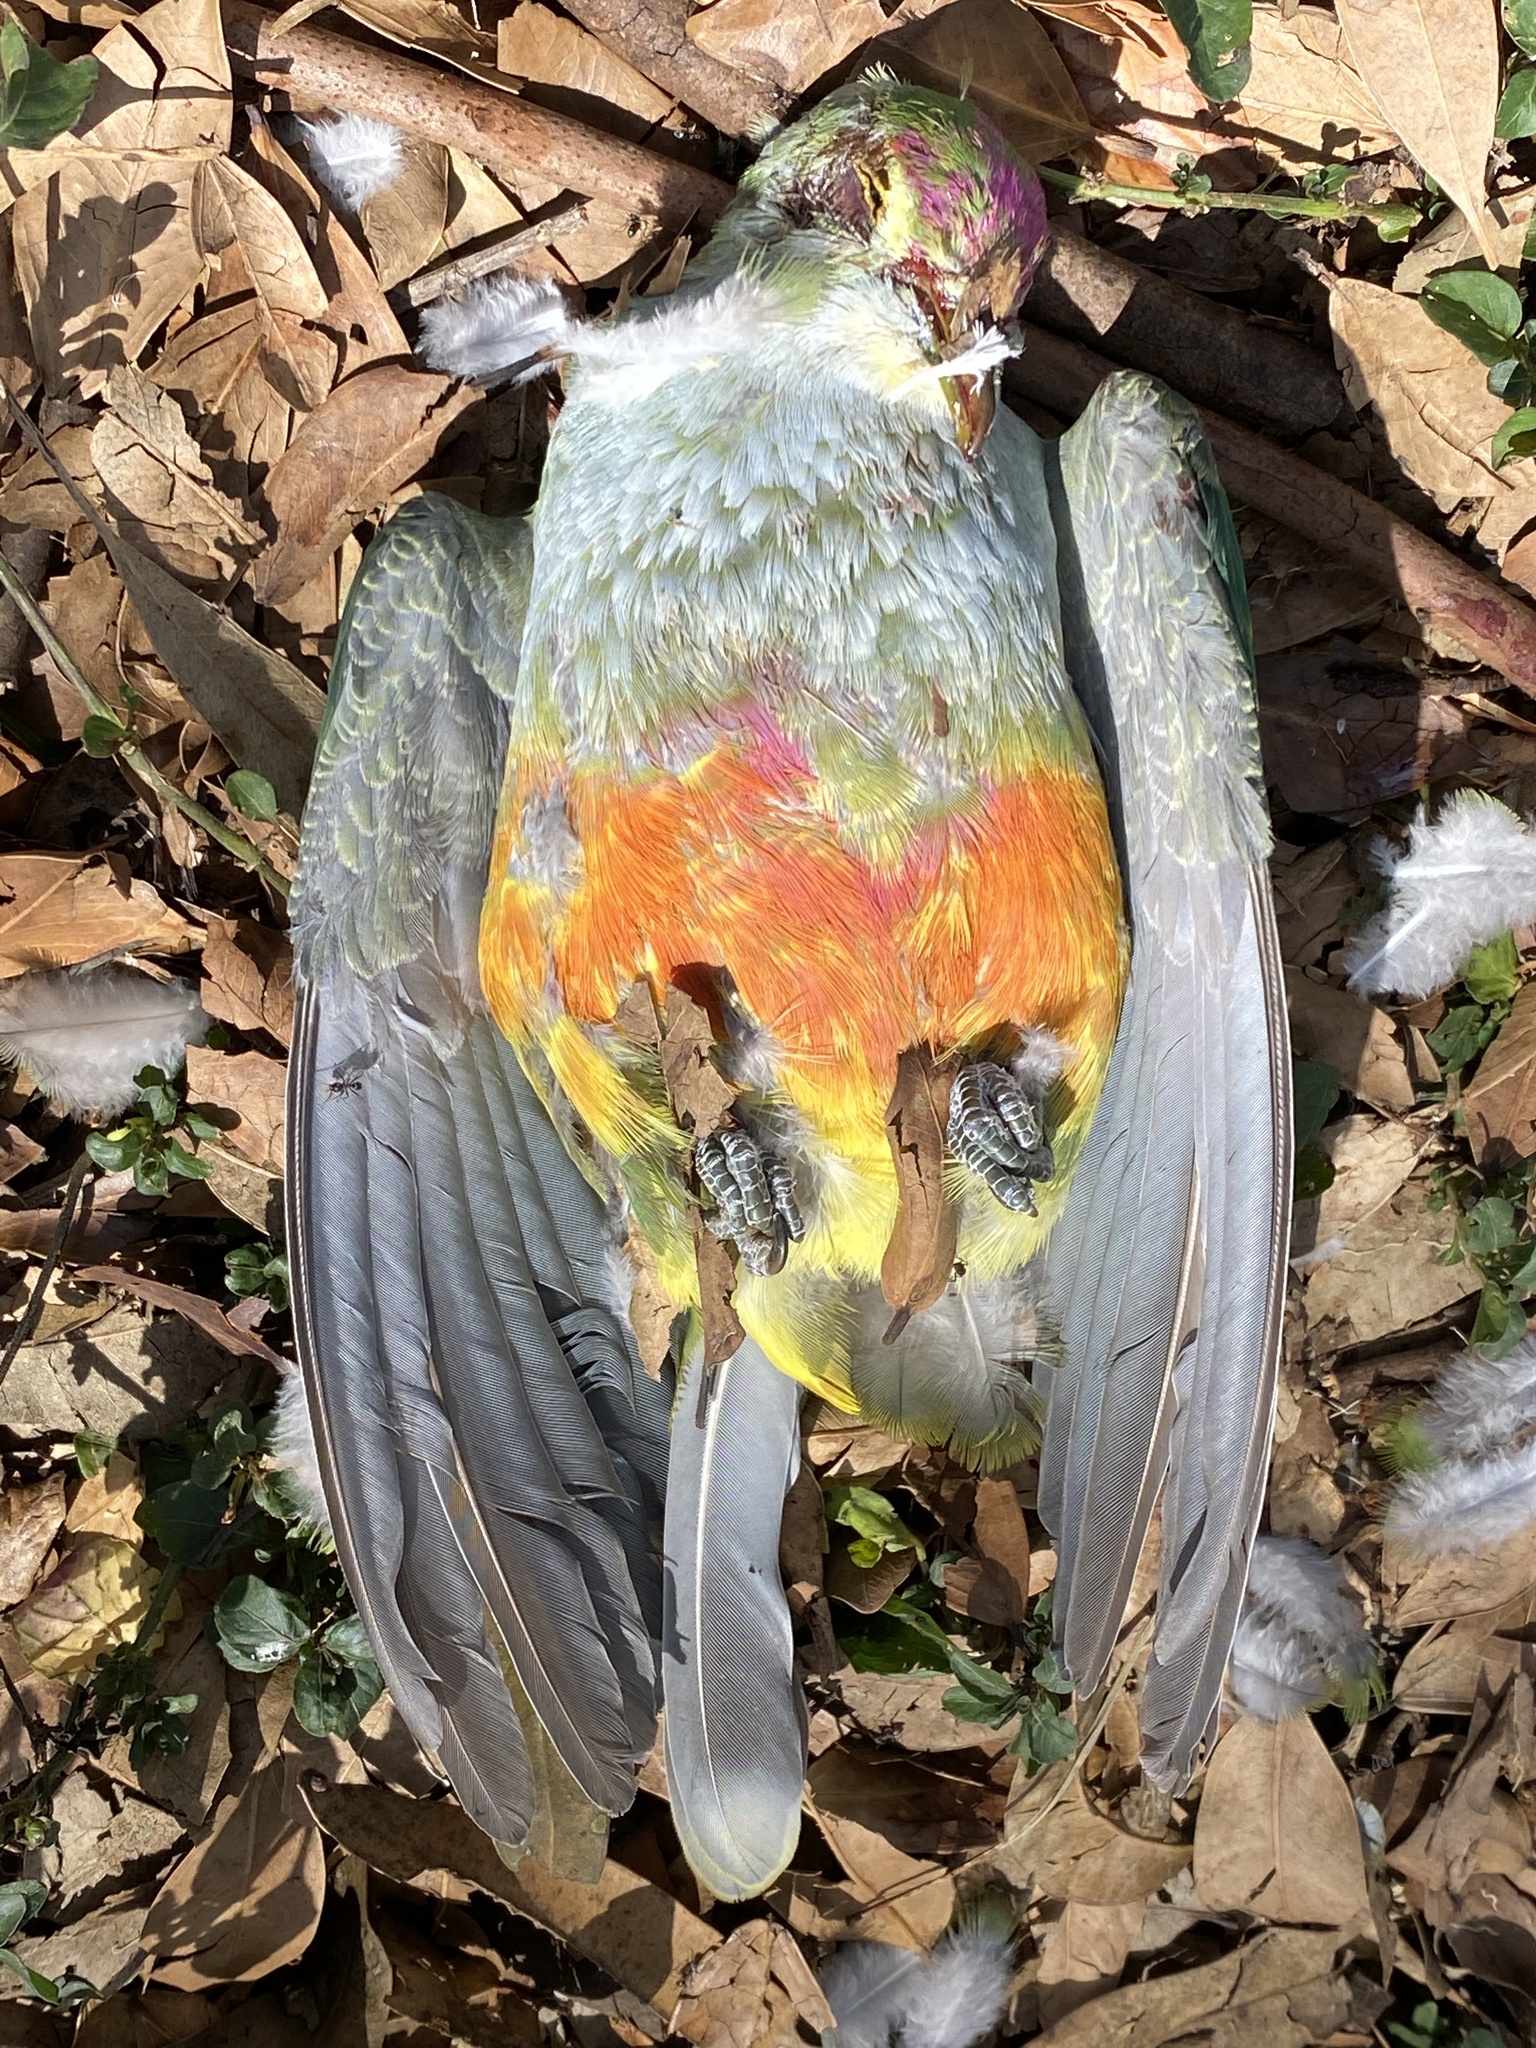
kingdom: Animalia
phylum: Chordata
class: Aves
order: Columbiformes
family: Columbidae
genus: Ptilinopus
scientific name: Ptilinopus regina
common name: Rose-crowned fruit dove
